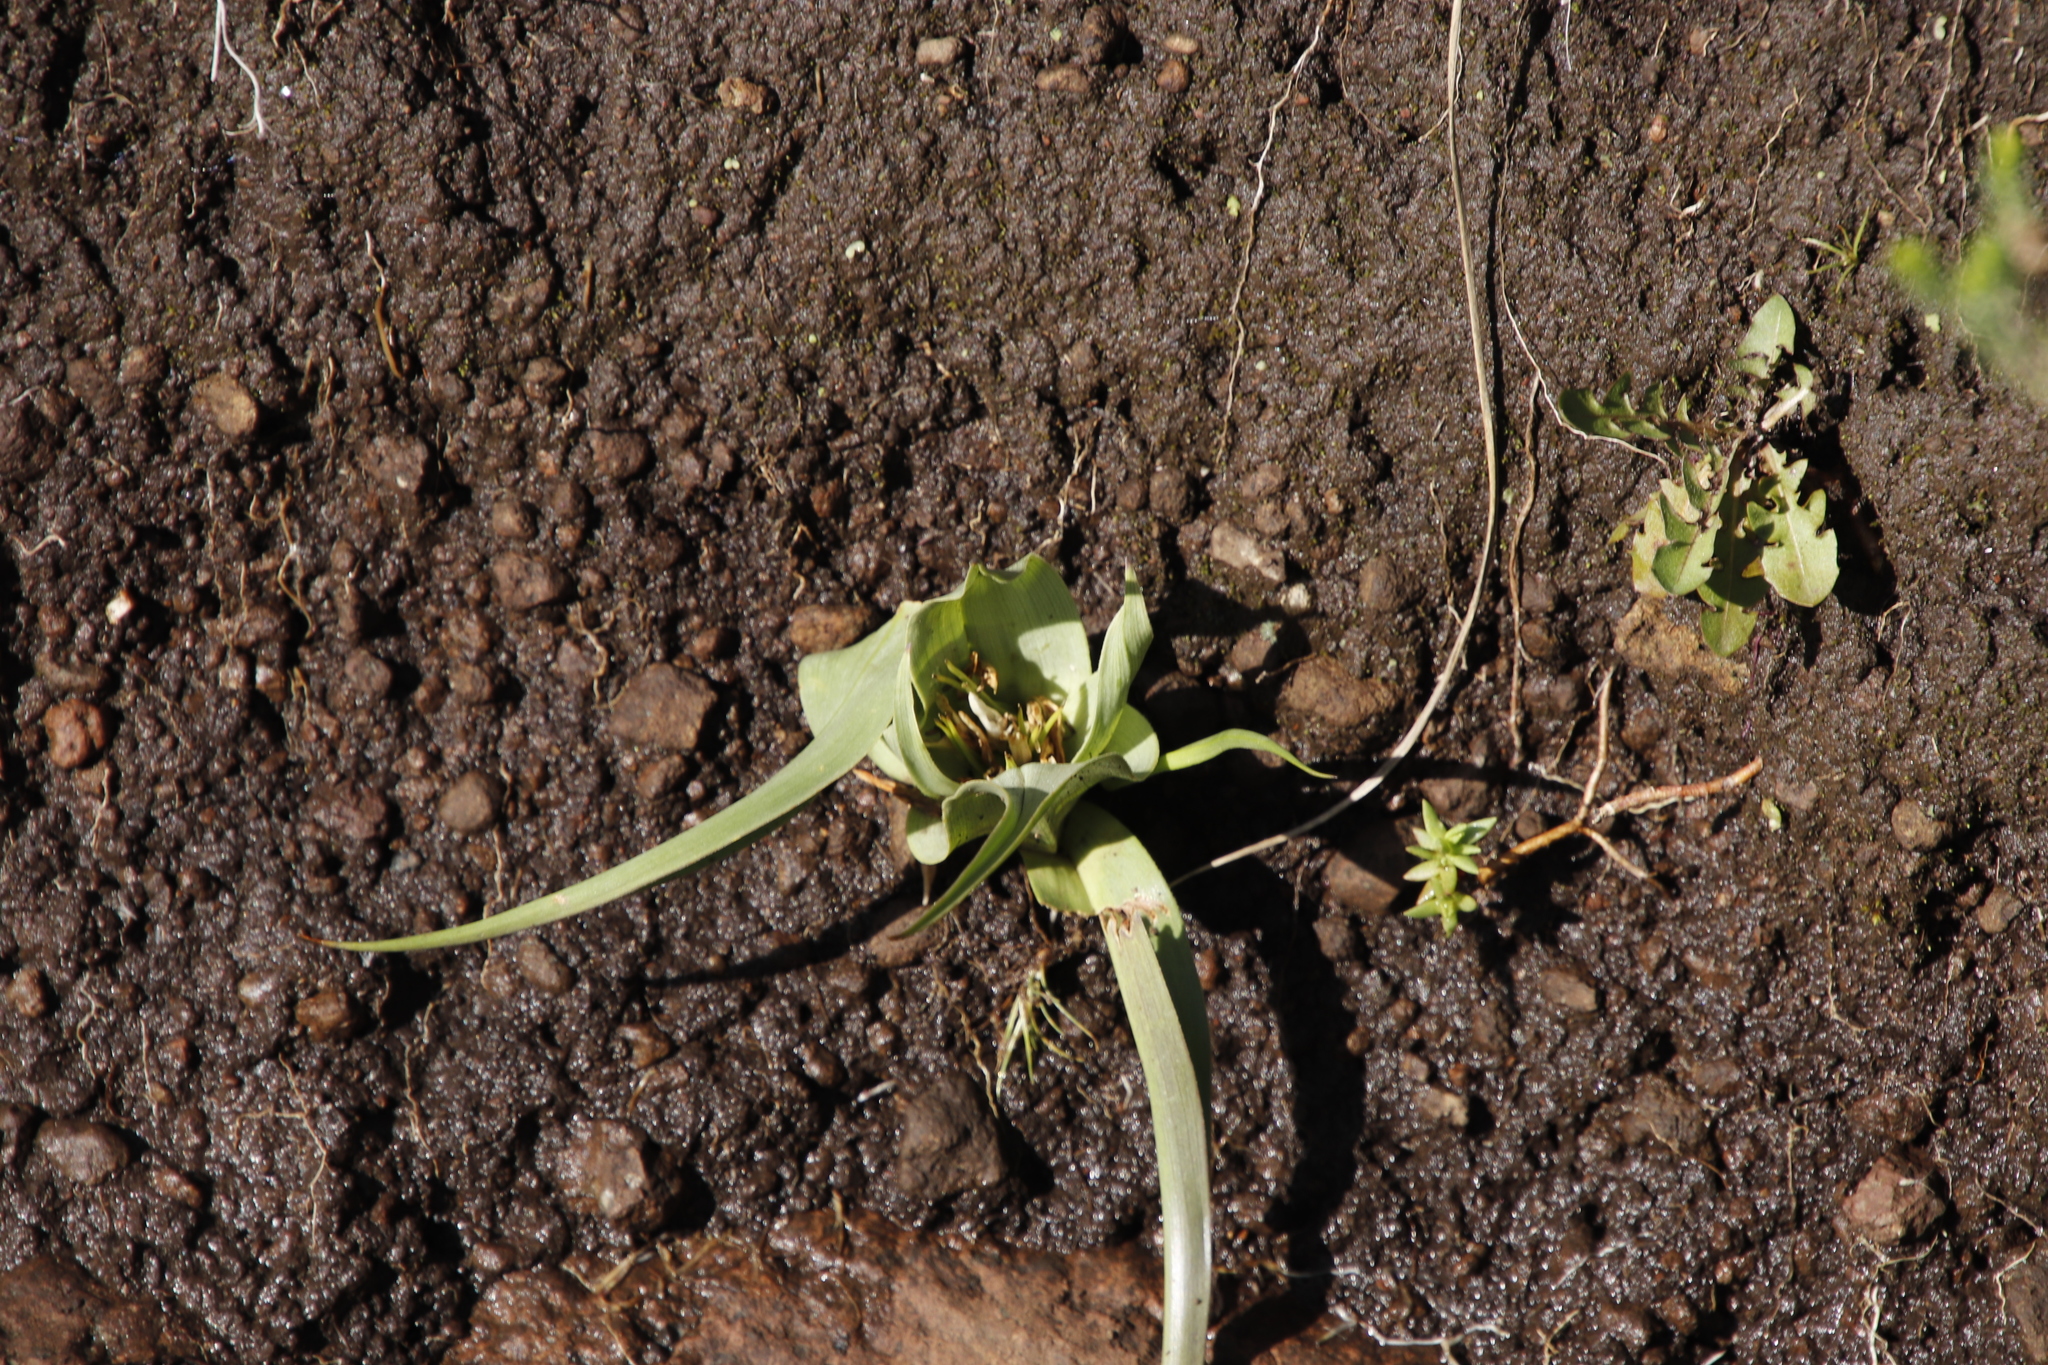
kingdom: Plantae
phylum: Tracheophyta
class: Liliopsida
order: Liliales
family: Colchicaceae
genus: Colchicum
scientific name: Colchicum longipes
